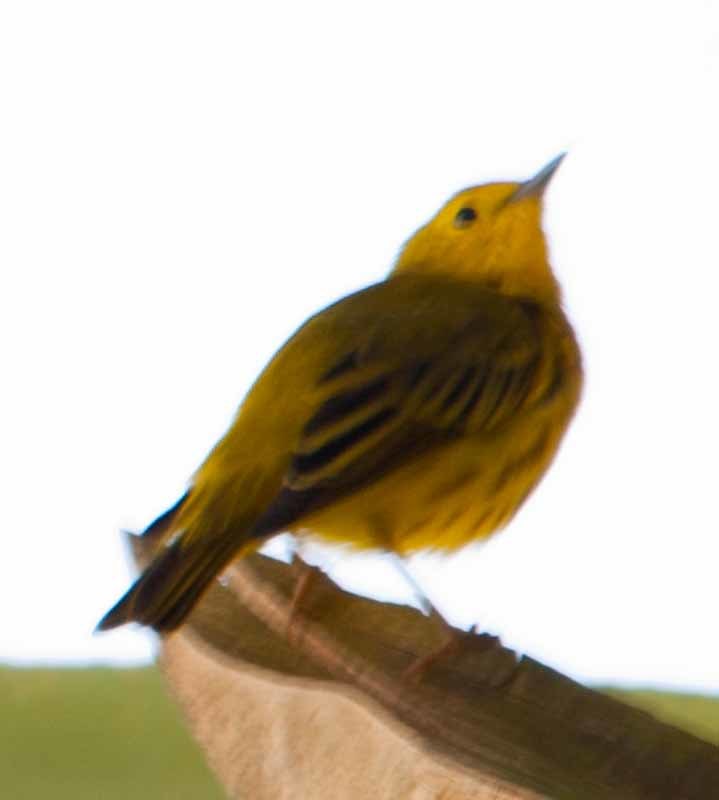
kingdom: Animalia
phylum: Chordata
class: Aves
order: Passeriformes
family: Parulidae
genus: Setophaga
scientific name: Setophaga petechia
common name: Yellow warbler
